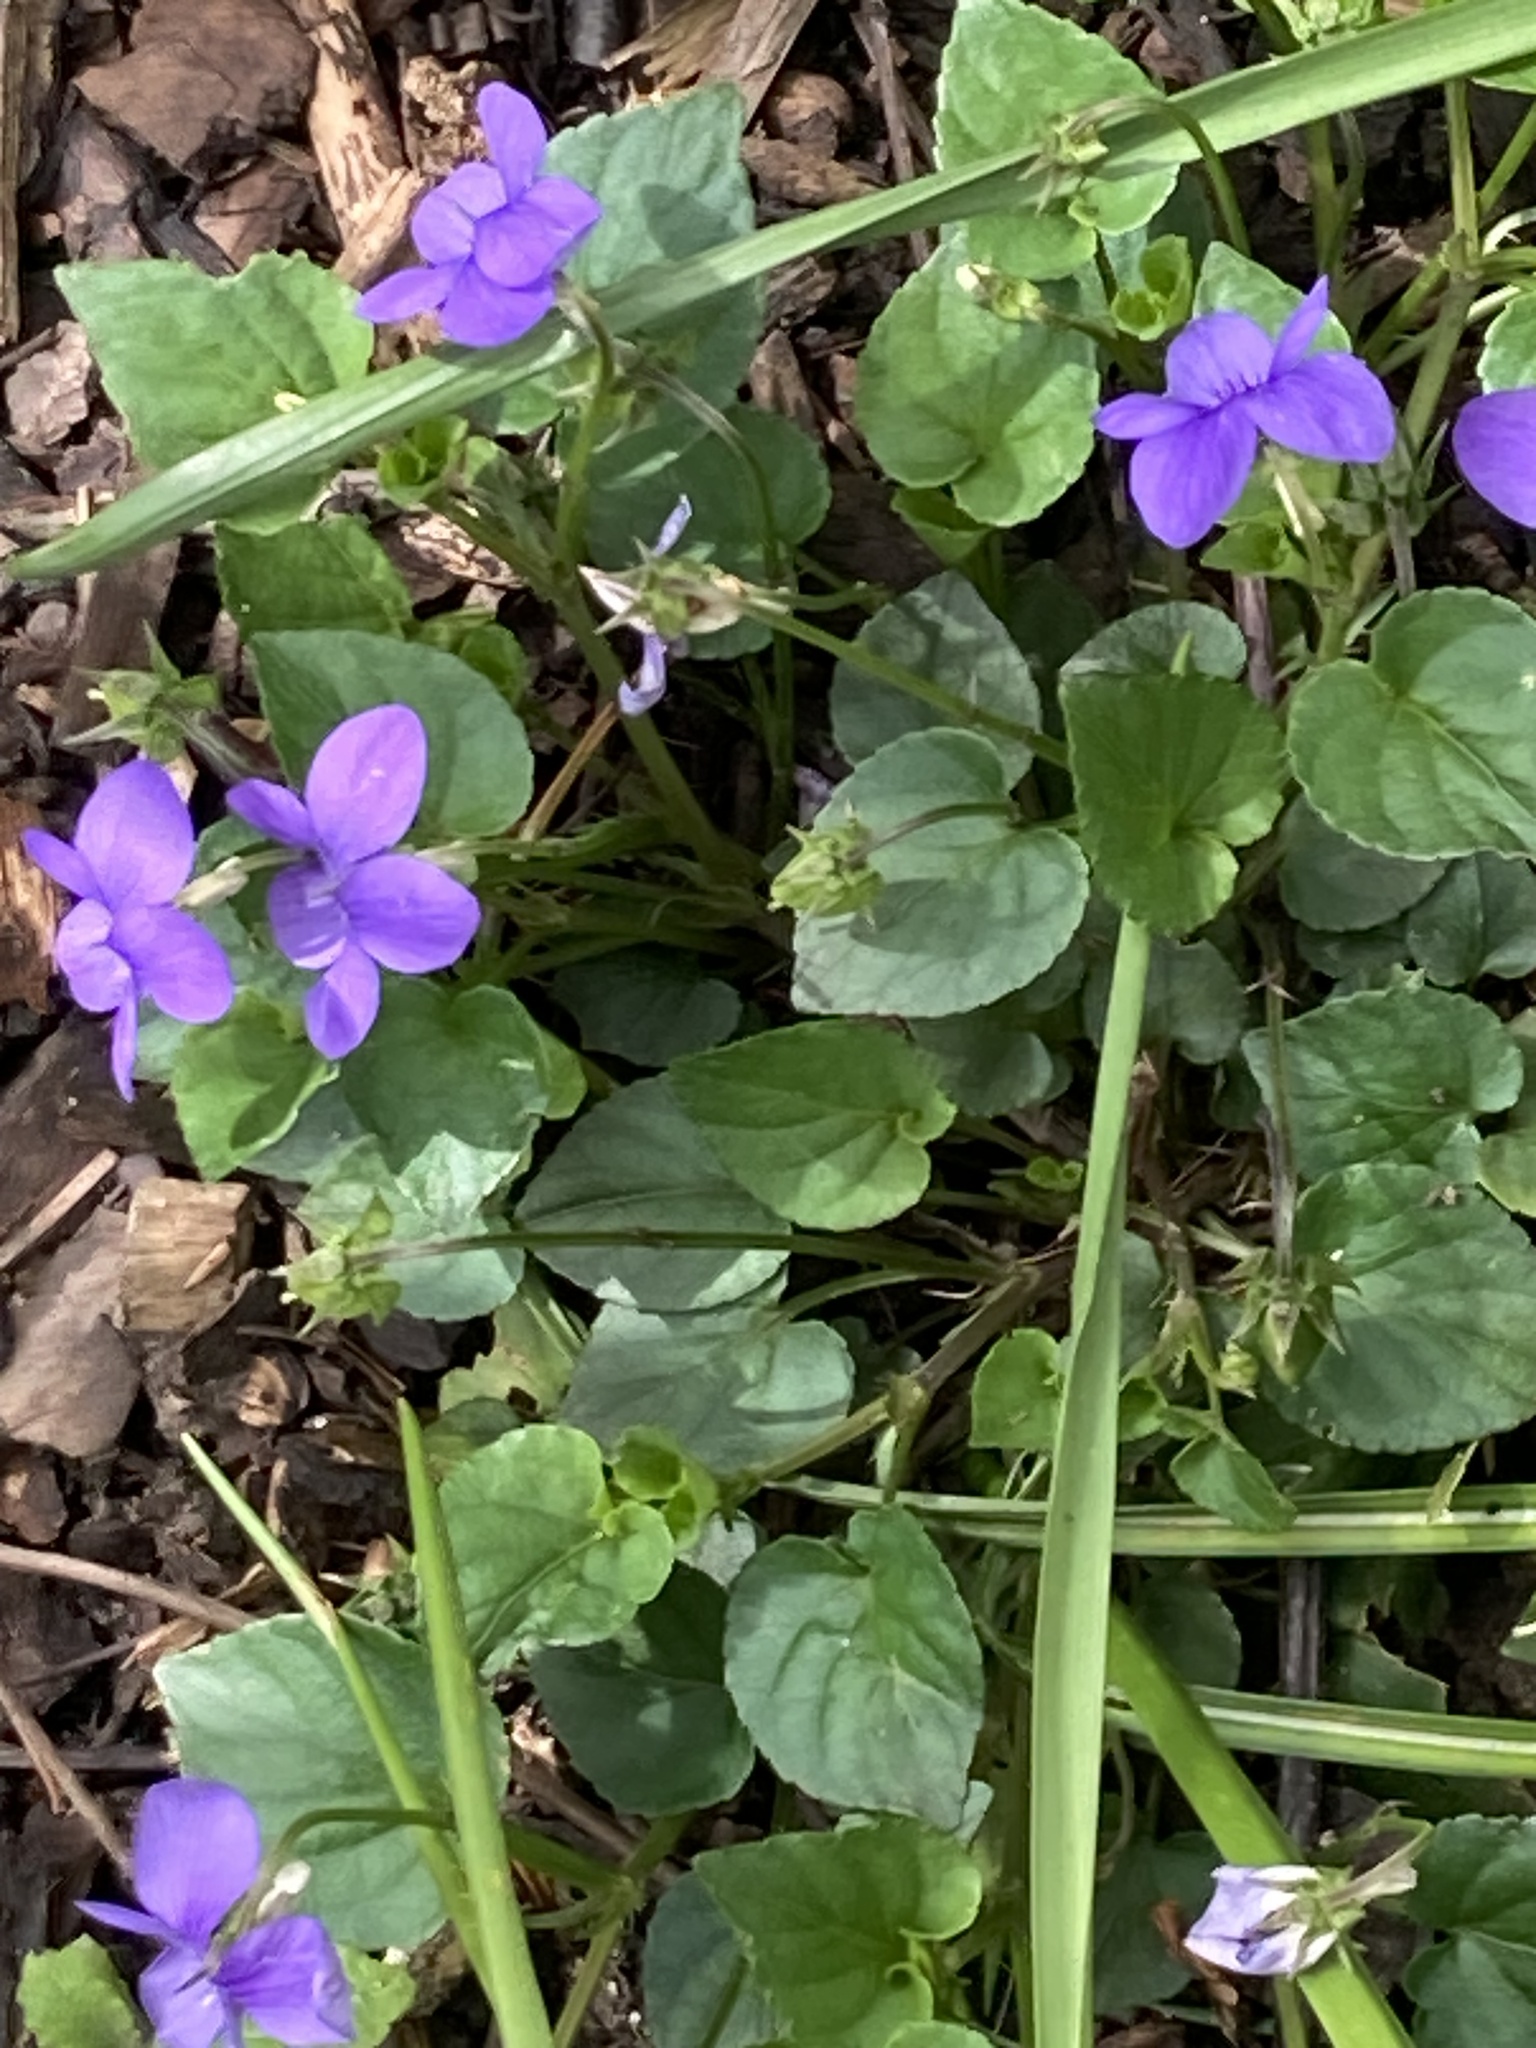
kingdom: Plantae
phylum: Tracheophyta
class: Magnoliopsida
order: Malpighiales
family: Violaceae
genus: Viola
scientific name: Viola riviniana
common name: Common dog-violet
